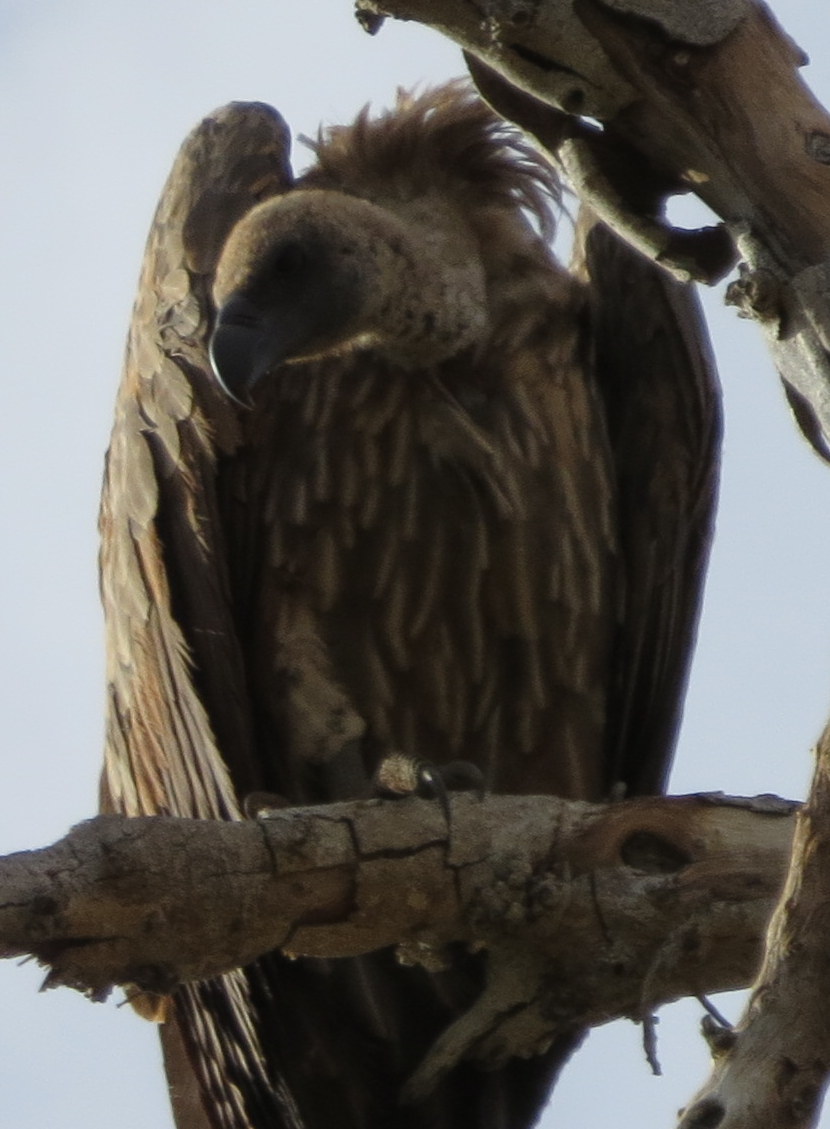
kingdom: Animalia
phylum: Chordata
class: Aves
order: Accipitriformes
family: Accipitridae
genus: Gyps
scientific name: Gyps africanus
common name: White-backed vulture
